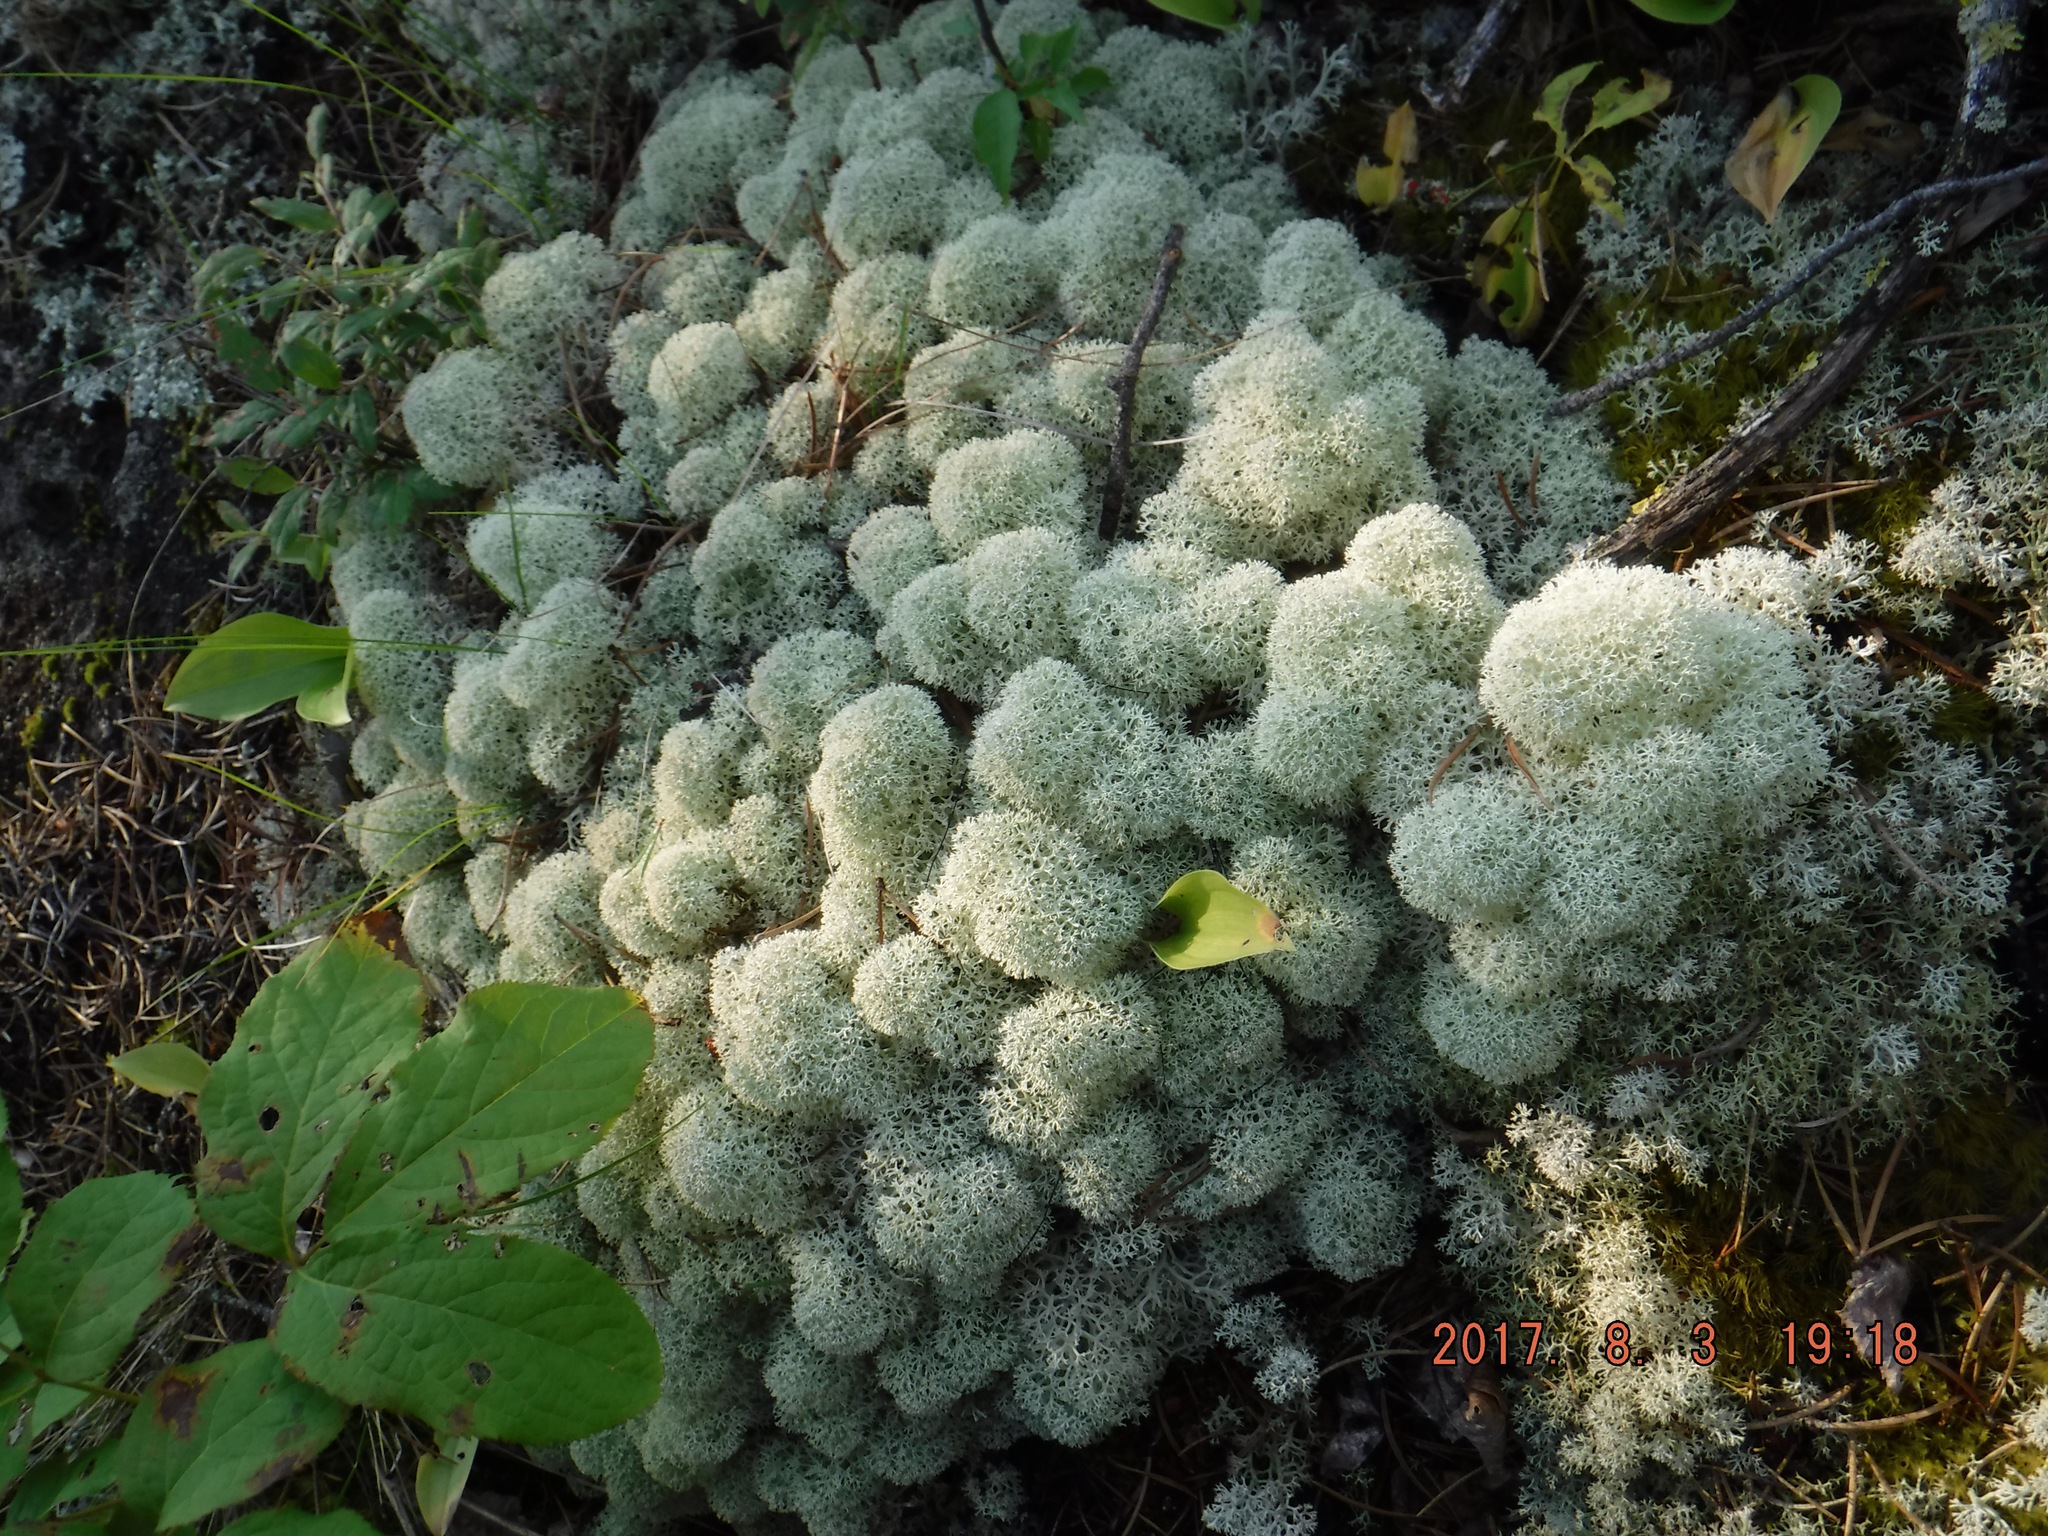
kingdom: Fungi
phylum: Ascomycota
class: Lecanoromycetes
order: Lecanorales
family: Cladoniaceae
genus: Cladonia
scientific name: Cladonia stellaris
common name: Star-tipped reindeer lichen
